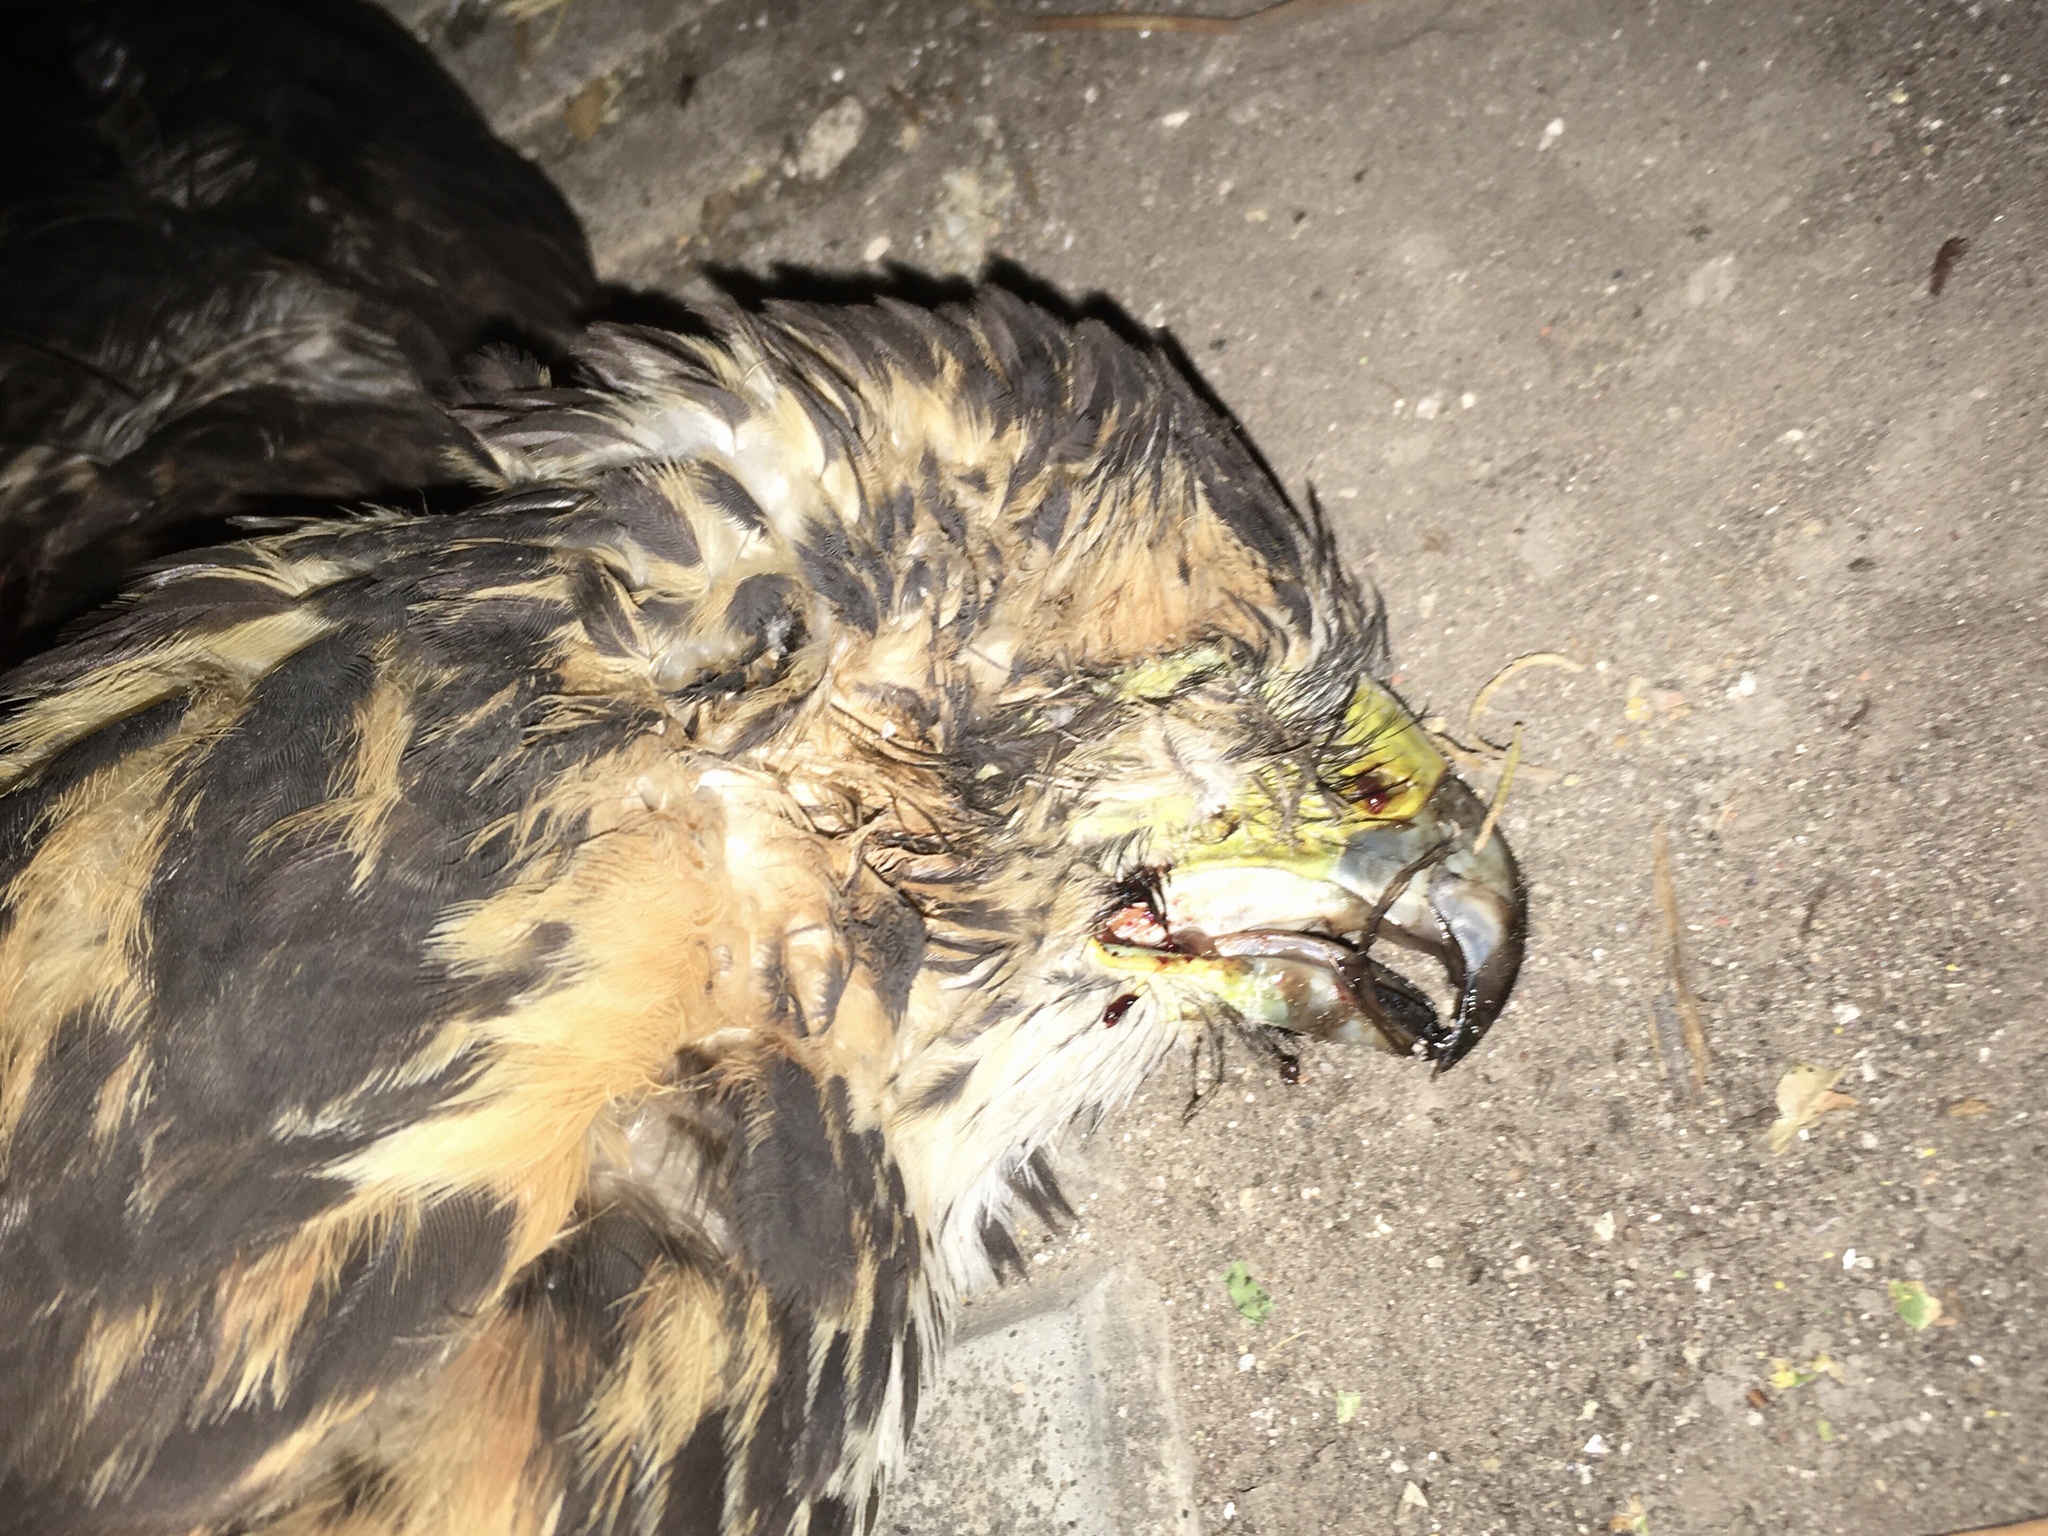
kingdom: Animalia
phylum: Chordata
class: Aves
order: Accipitriformes
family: Accipitridae
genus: Parabuteo
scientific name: Parabuteo unicinctus
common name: Harris's hawk
